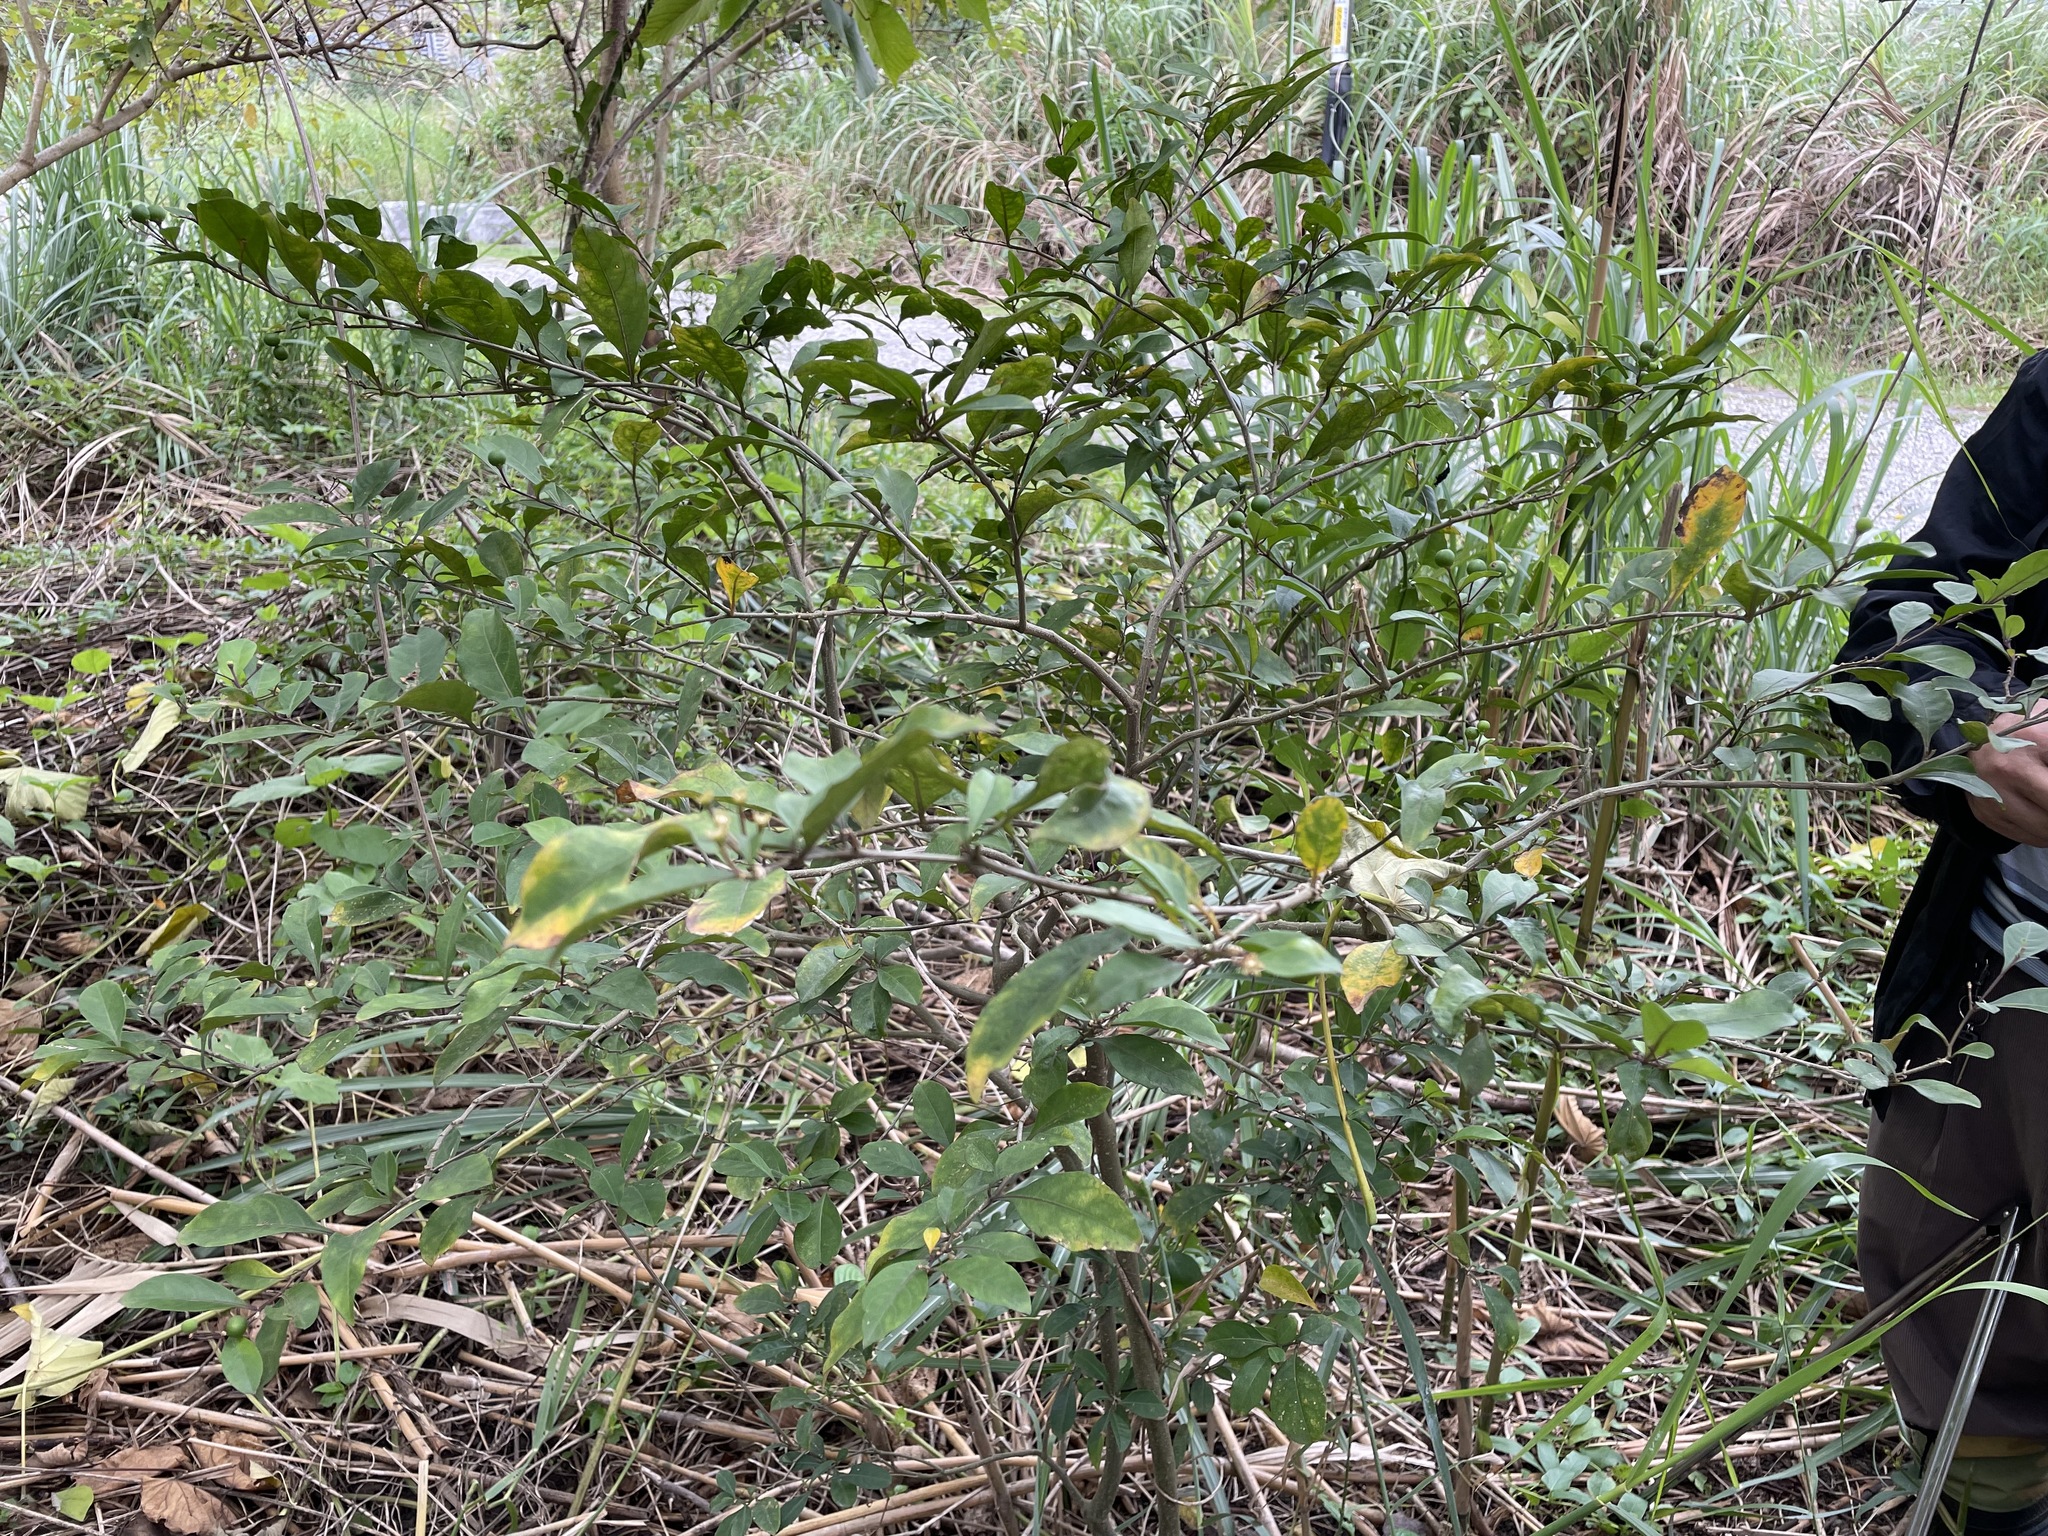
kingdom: Plantae
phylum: Tracheophyta
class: Magnoliopsida
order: Solanales
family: Solanaceae
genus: Solanum
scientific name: Solanum diphyllum
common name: Twoleaf nightshade
